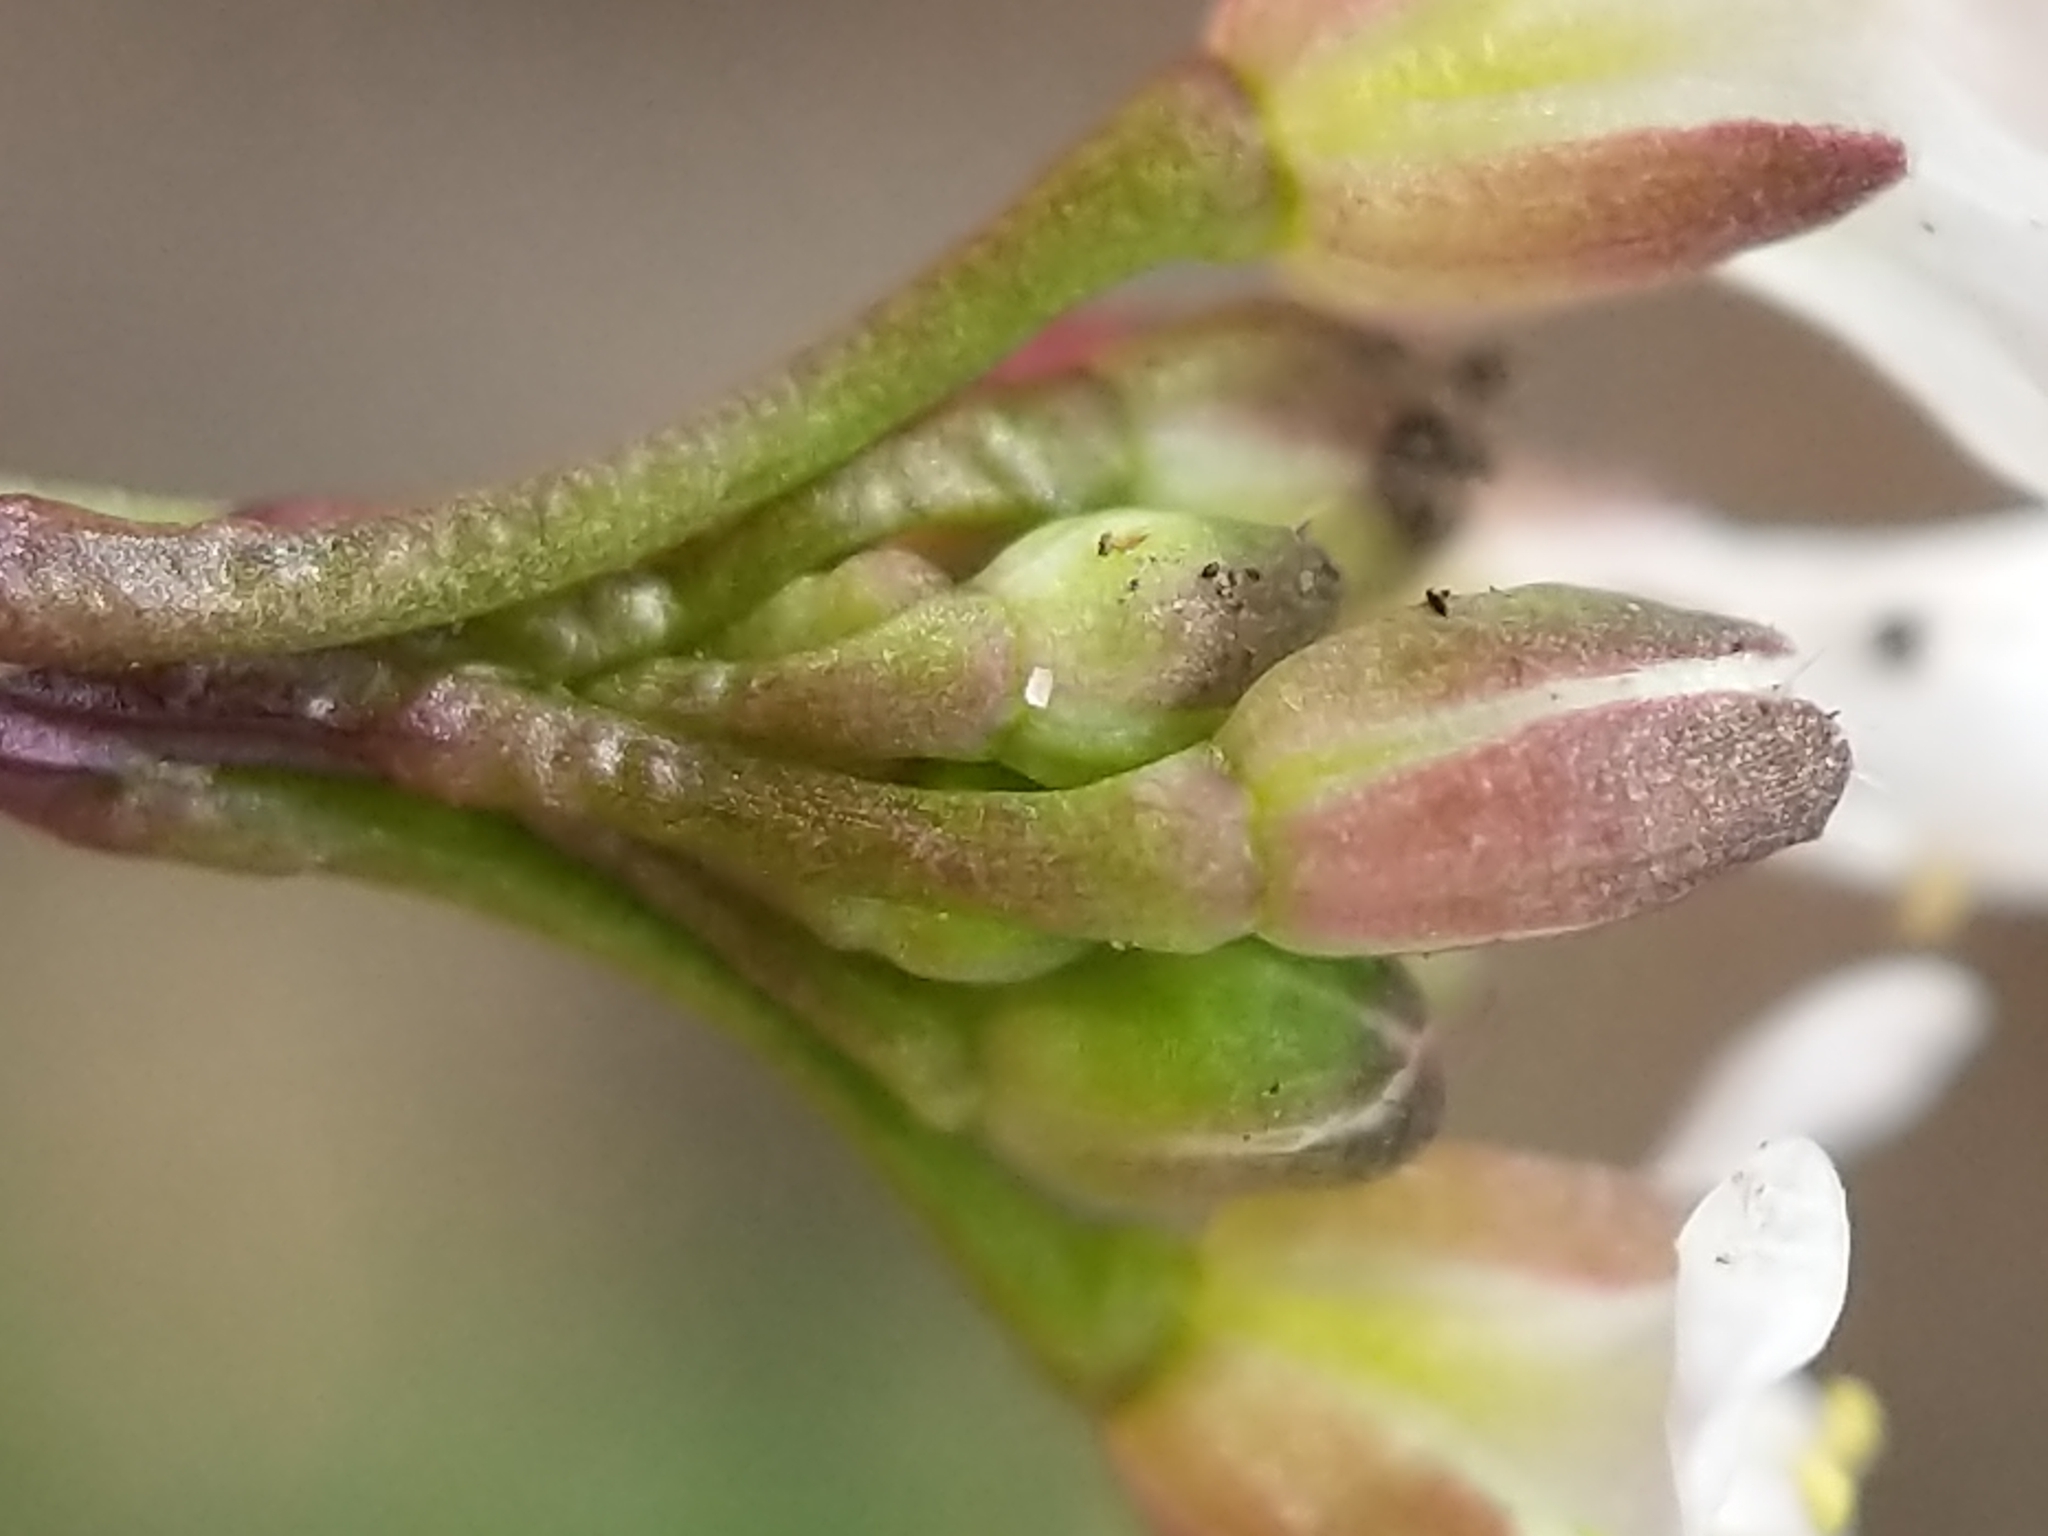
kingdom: Plantae
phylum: Tracheophyta
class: Magnoliopsida
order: Brassicales
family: Brassicaceae
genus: Cardamine
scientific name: Cardamine hirsuta
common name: Hairy bittercress
